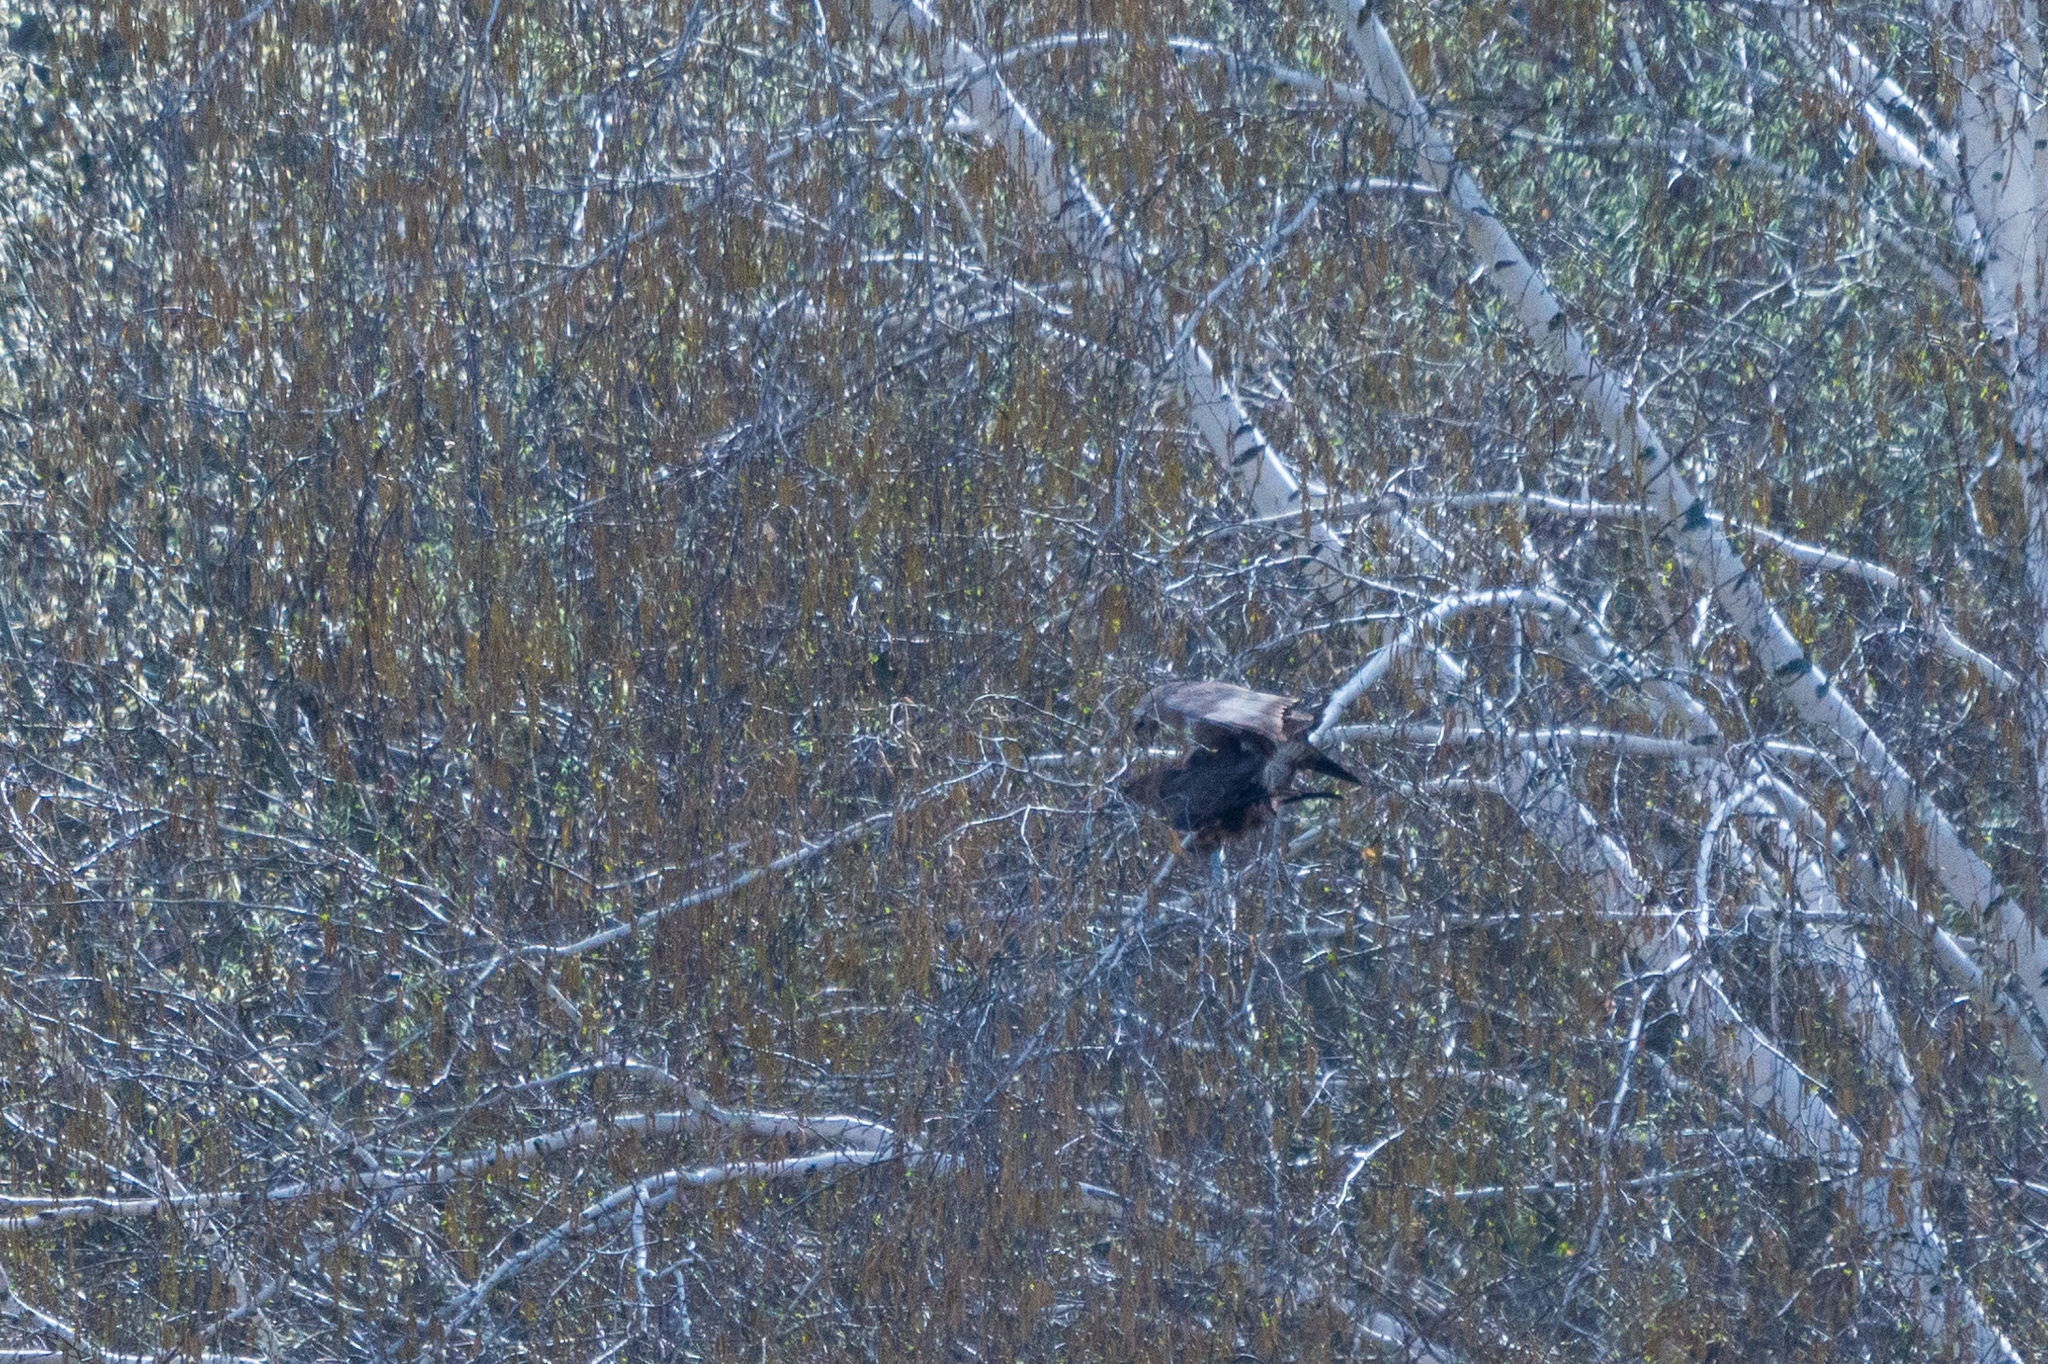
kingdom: Animalia
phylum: Chordata
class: Aves
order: Accipitriformes
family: Accipitridae
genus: Buteo
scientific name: Buteo buteo
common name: Common buzzard
